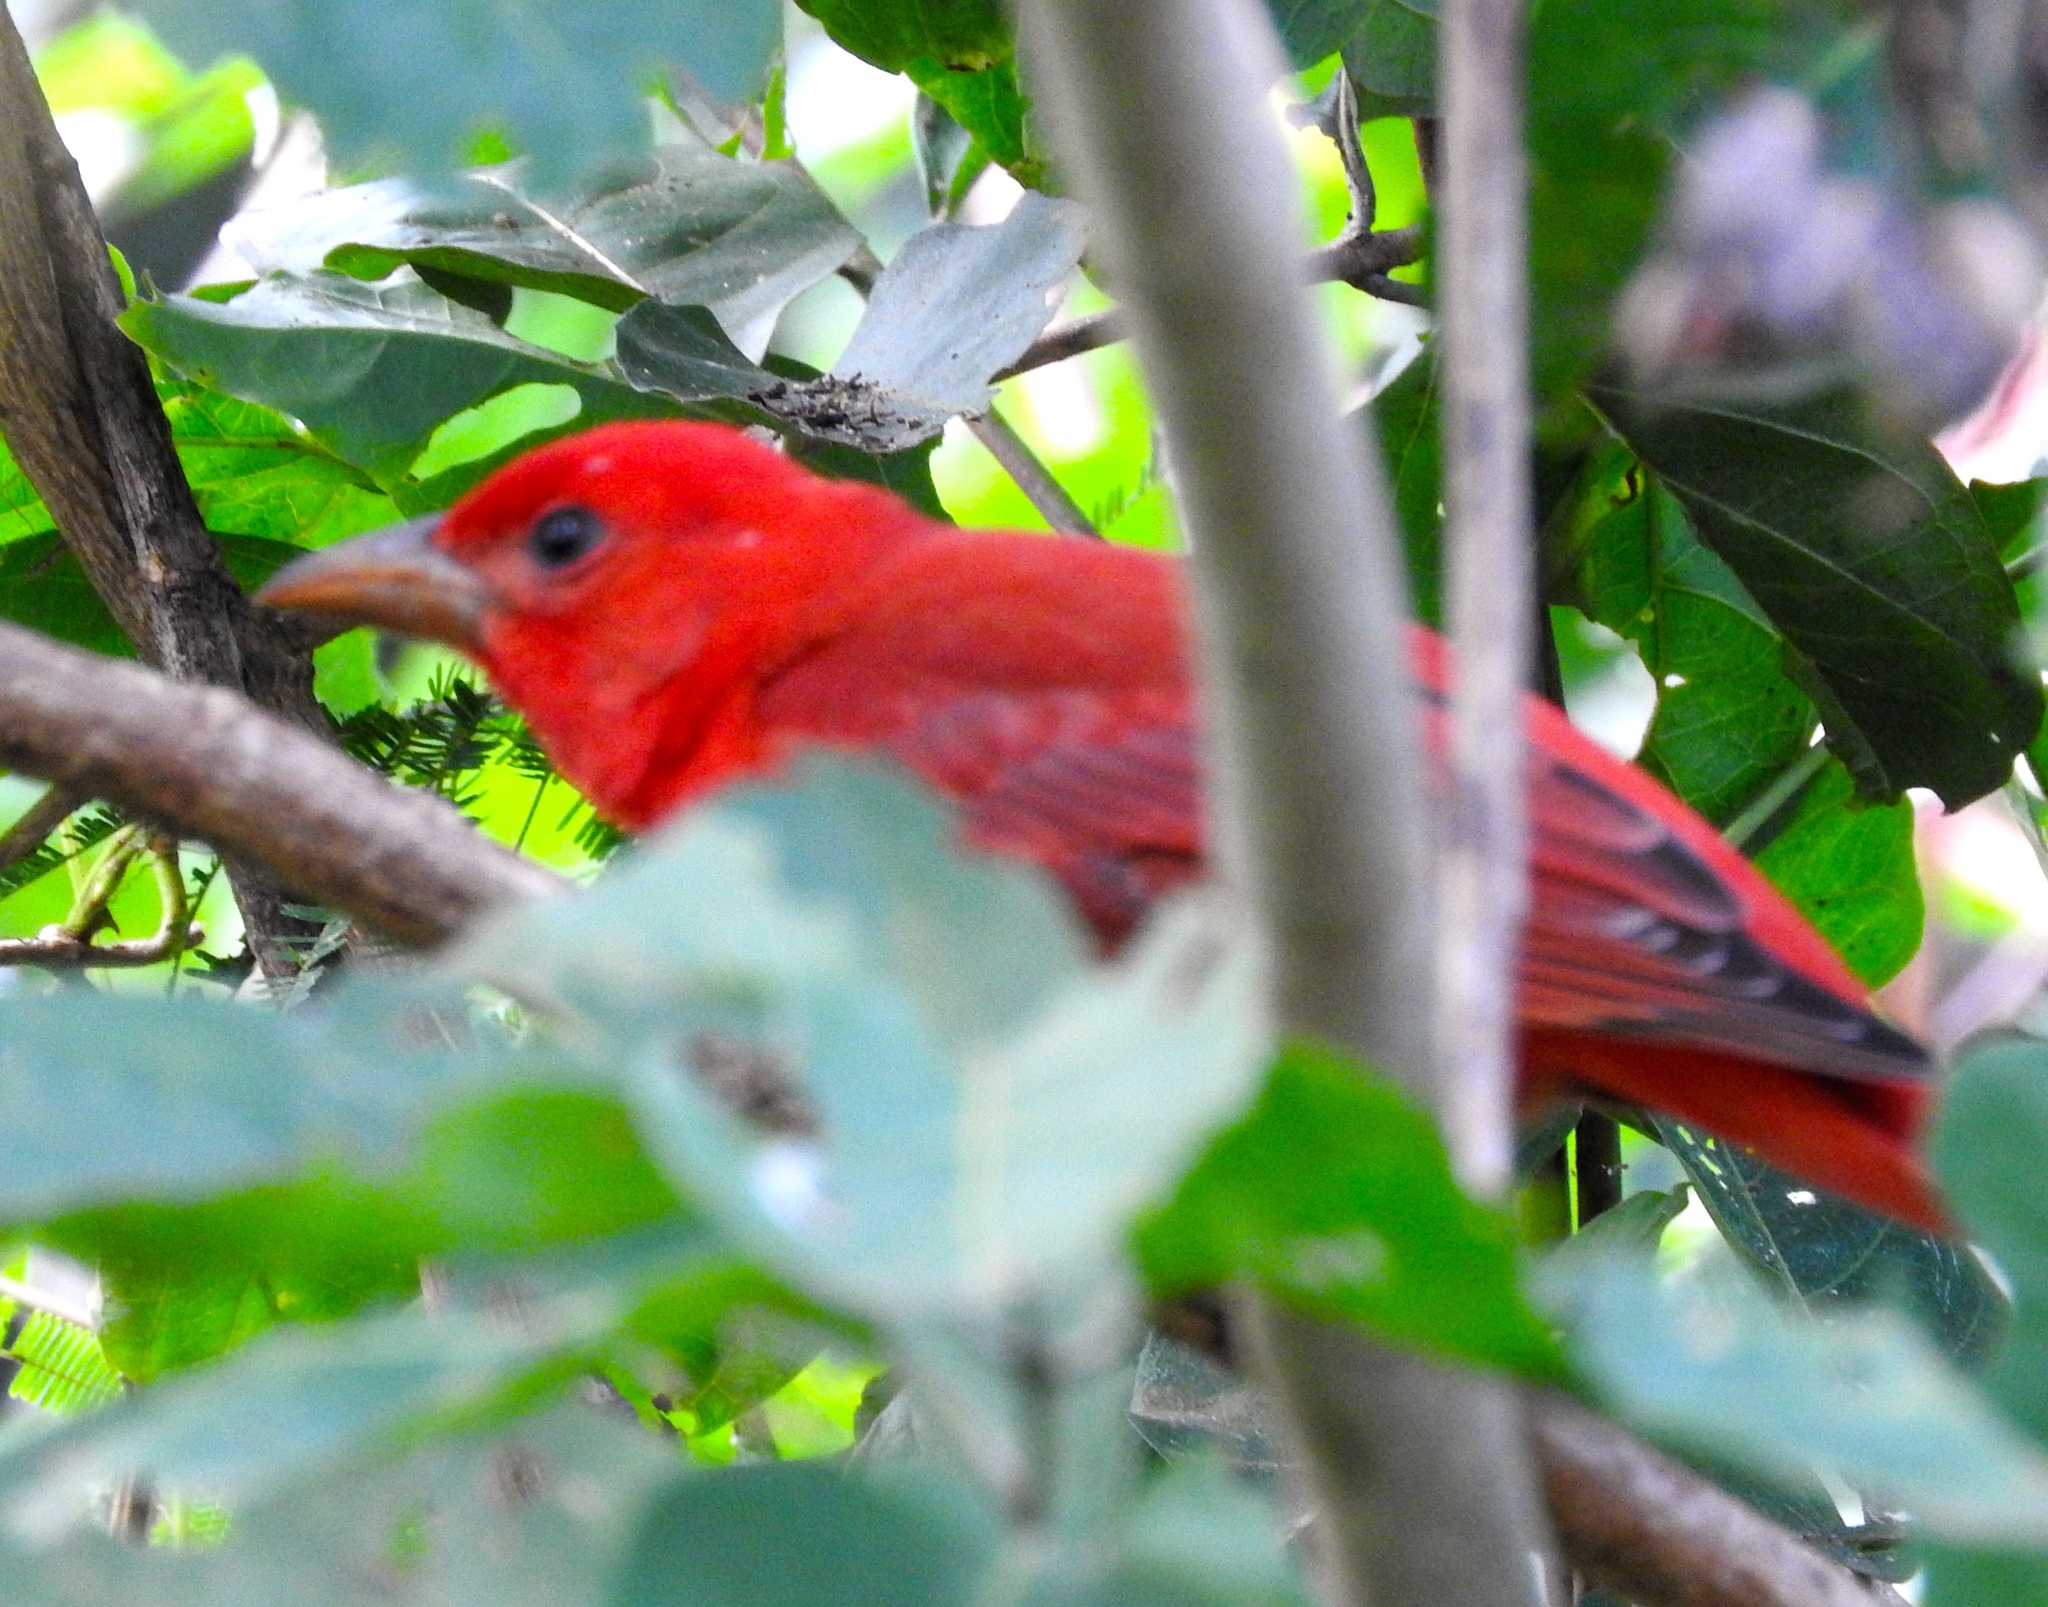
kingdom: Animalia
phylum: Chordata
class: Aves
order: Passeriformes
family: Cardinalidae
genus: Piranga
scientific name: Piranga rubra
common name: Summer tanager
